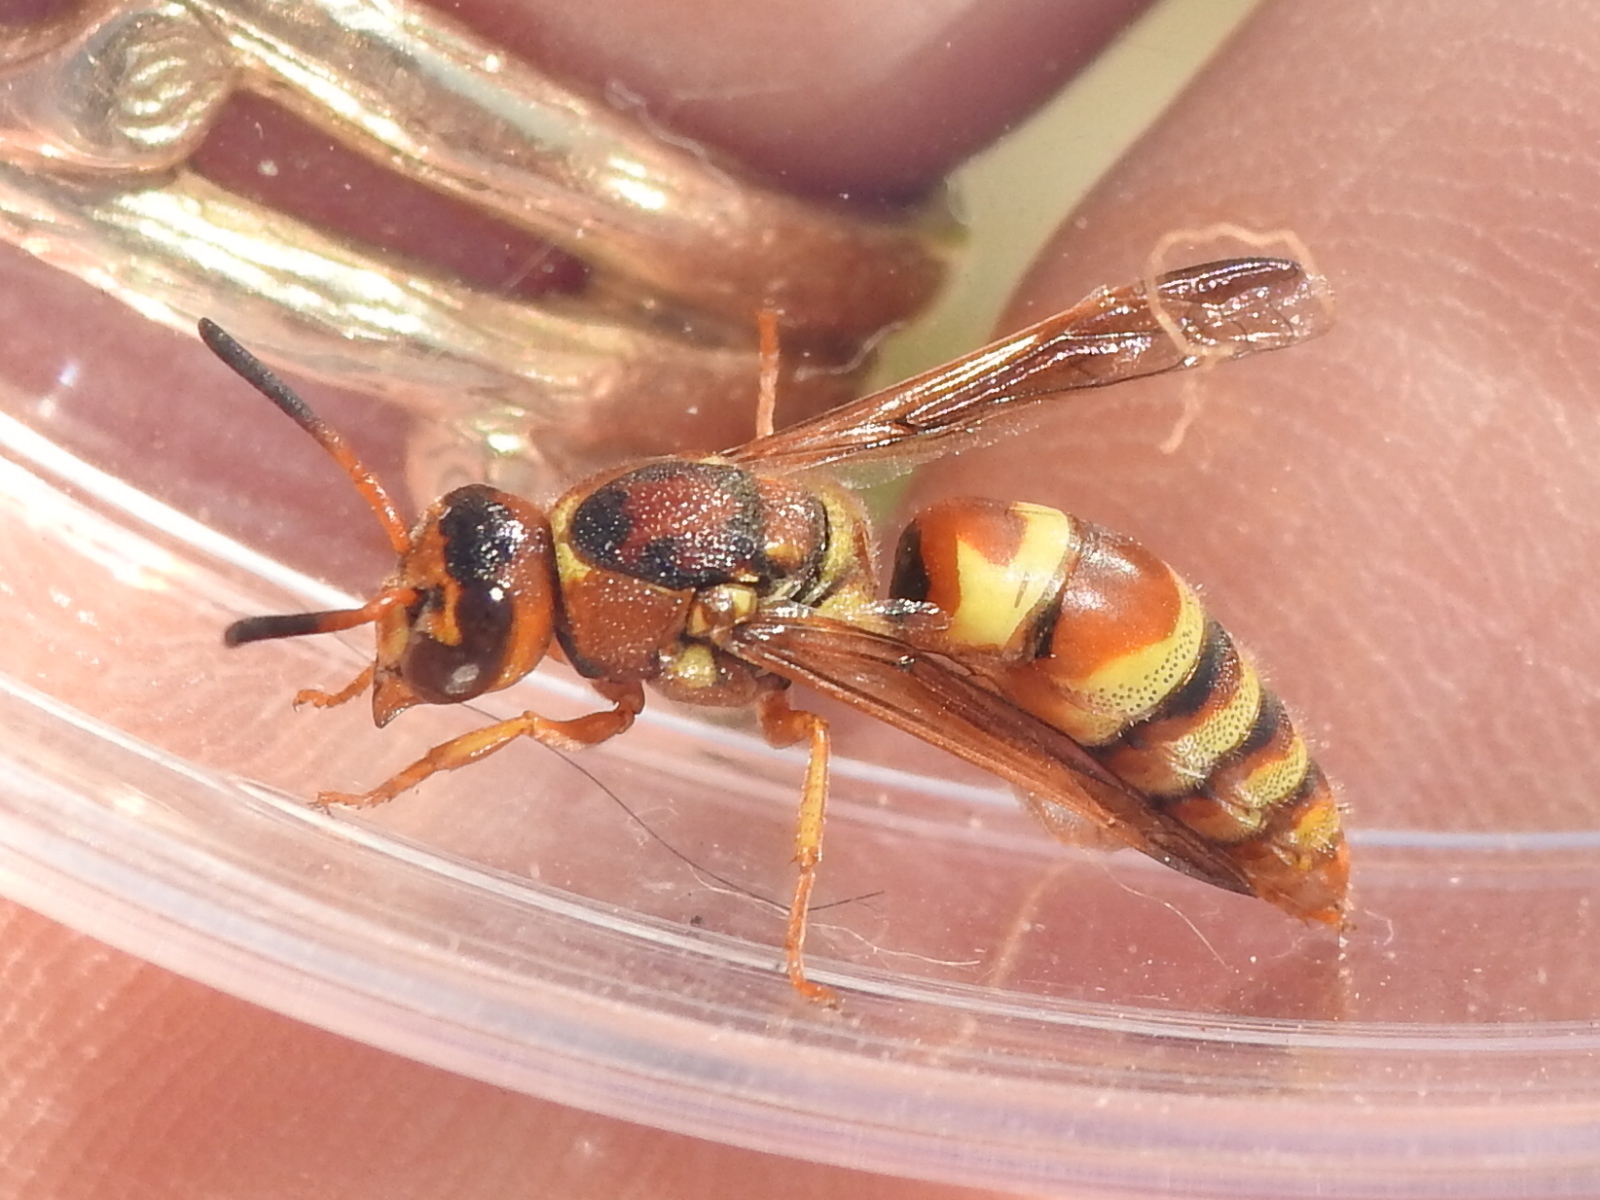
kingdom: Animalia
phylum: Arthropoda
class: Insecta
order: Hymenoptera
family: Eumenidae
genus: Euodynerus
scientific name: Euodynerus pratensis
